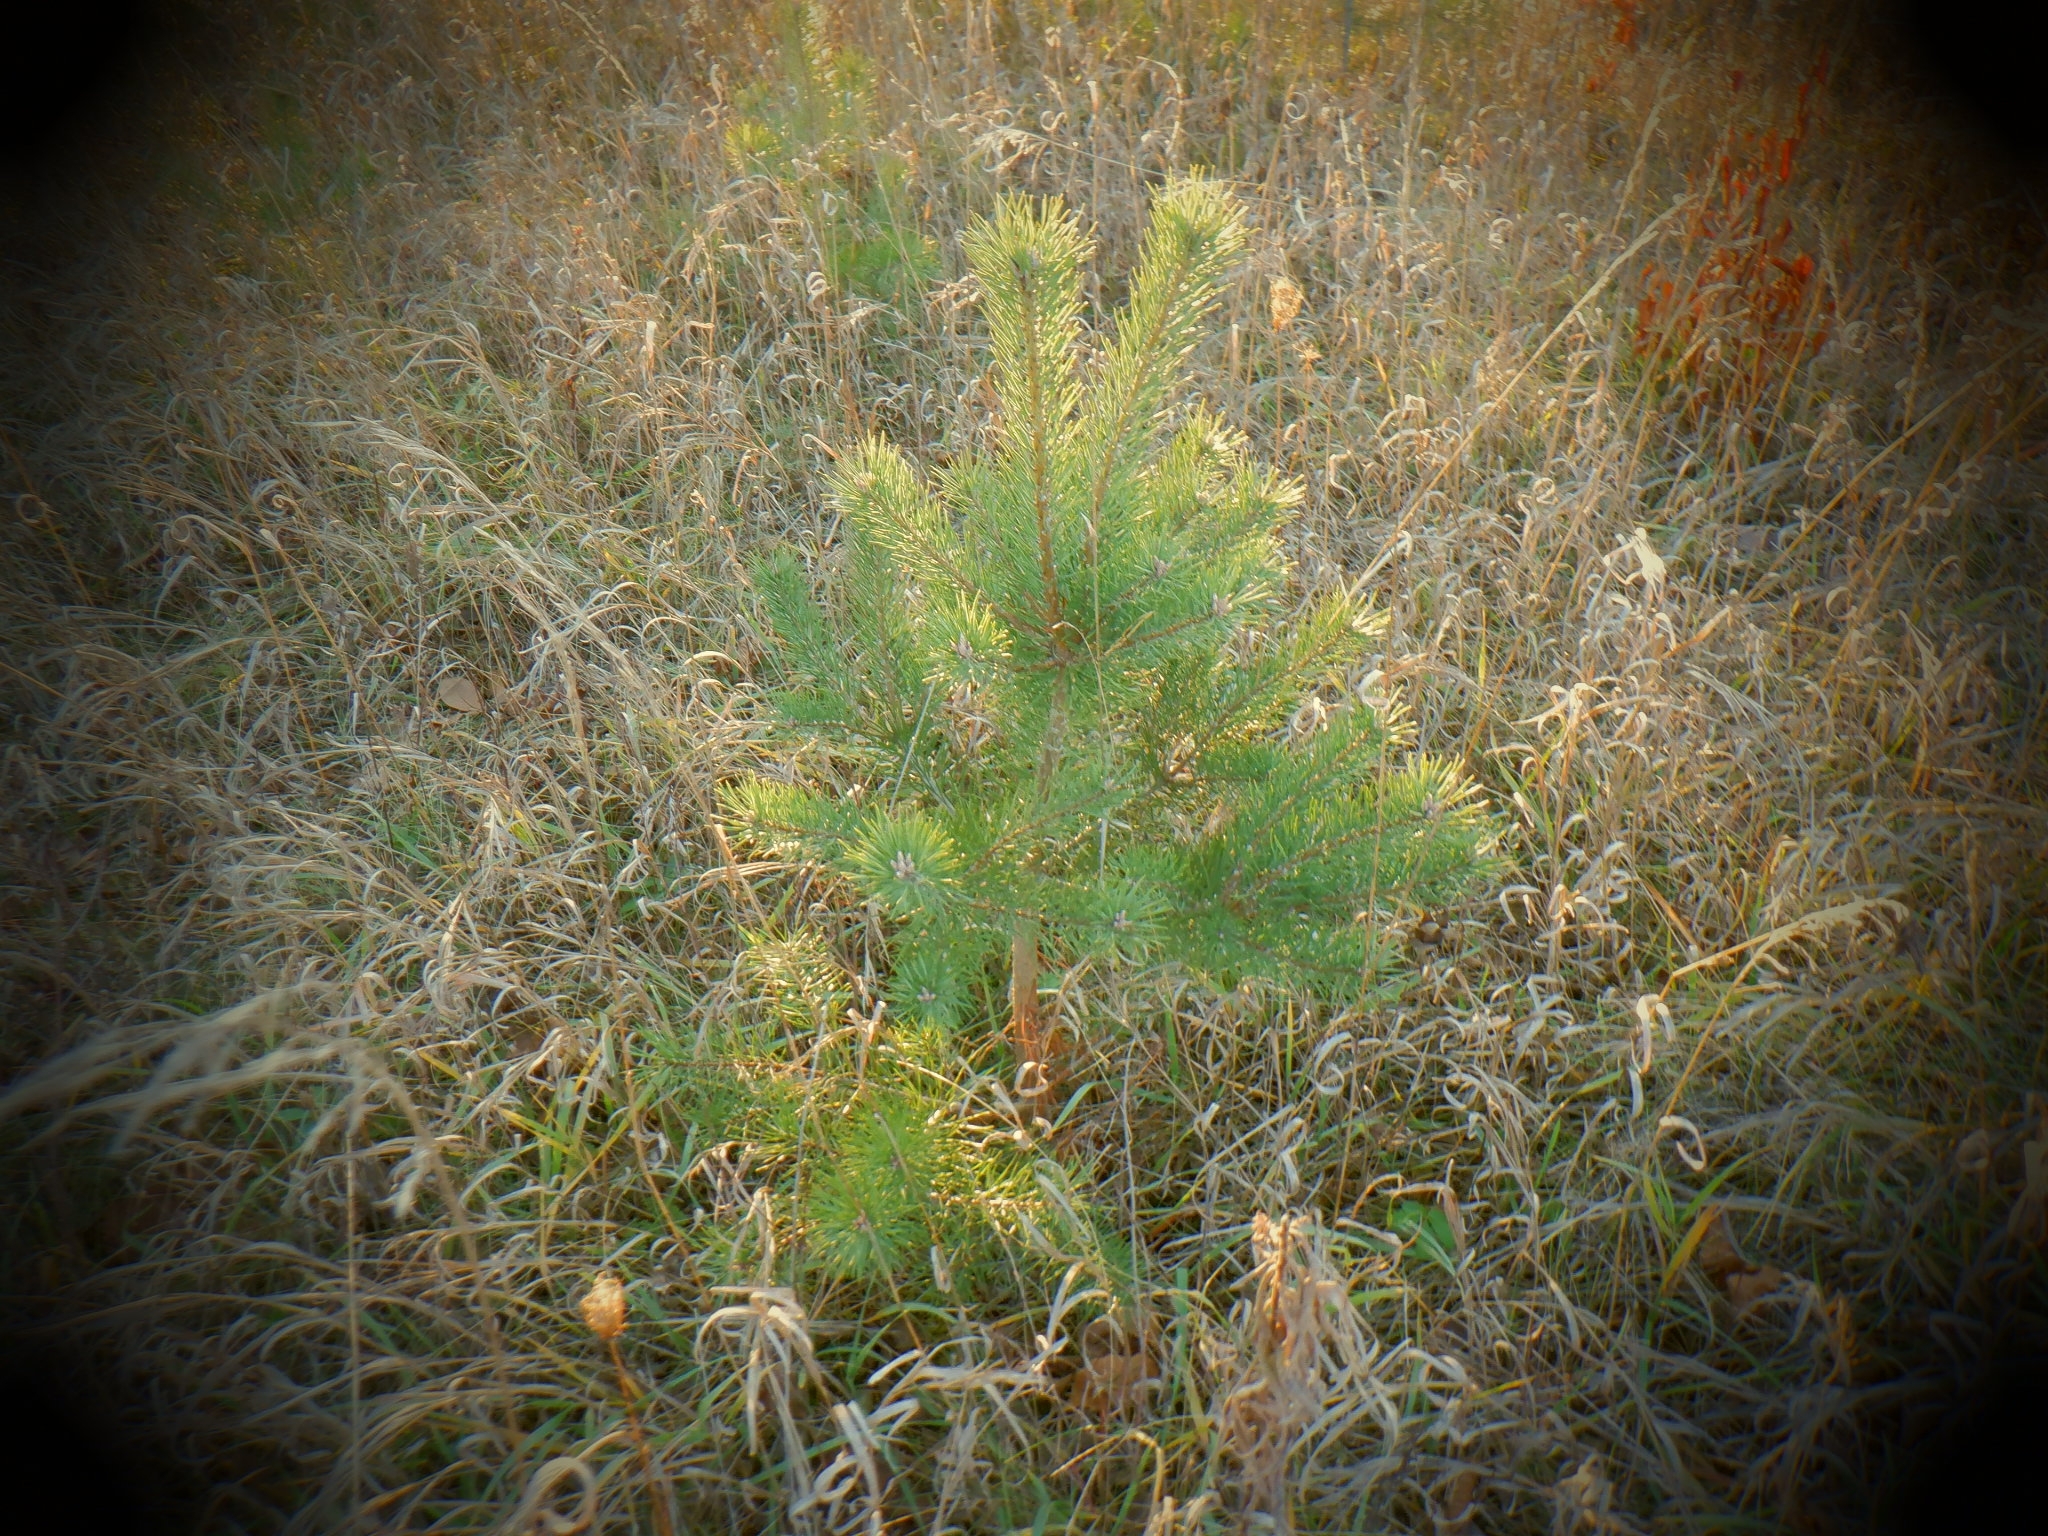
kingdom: Plantae
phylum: Tracheophyta
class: Pinopsida
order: Pinales
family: Pinaceae
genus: Pinus
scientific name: Pinus sylvestris
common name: Scots pine
